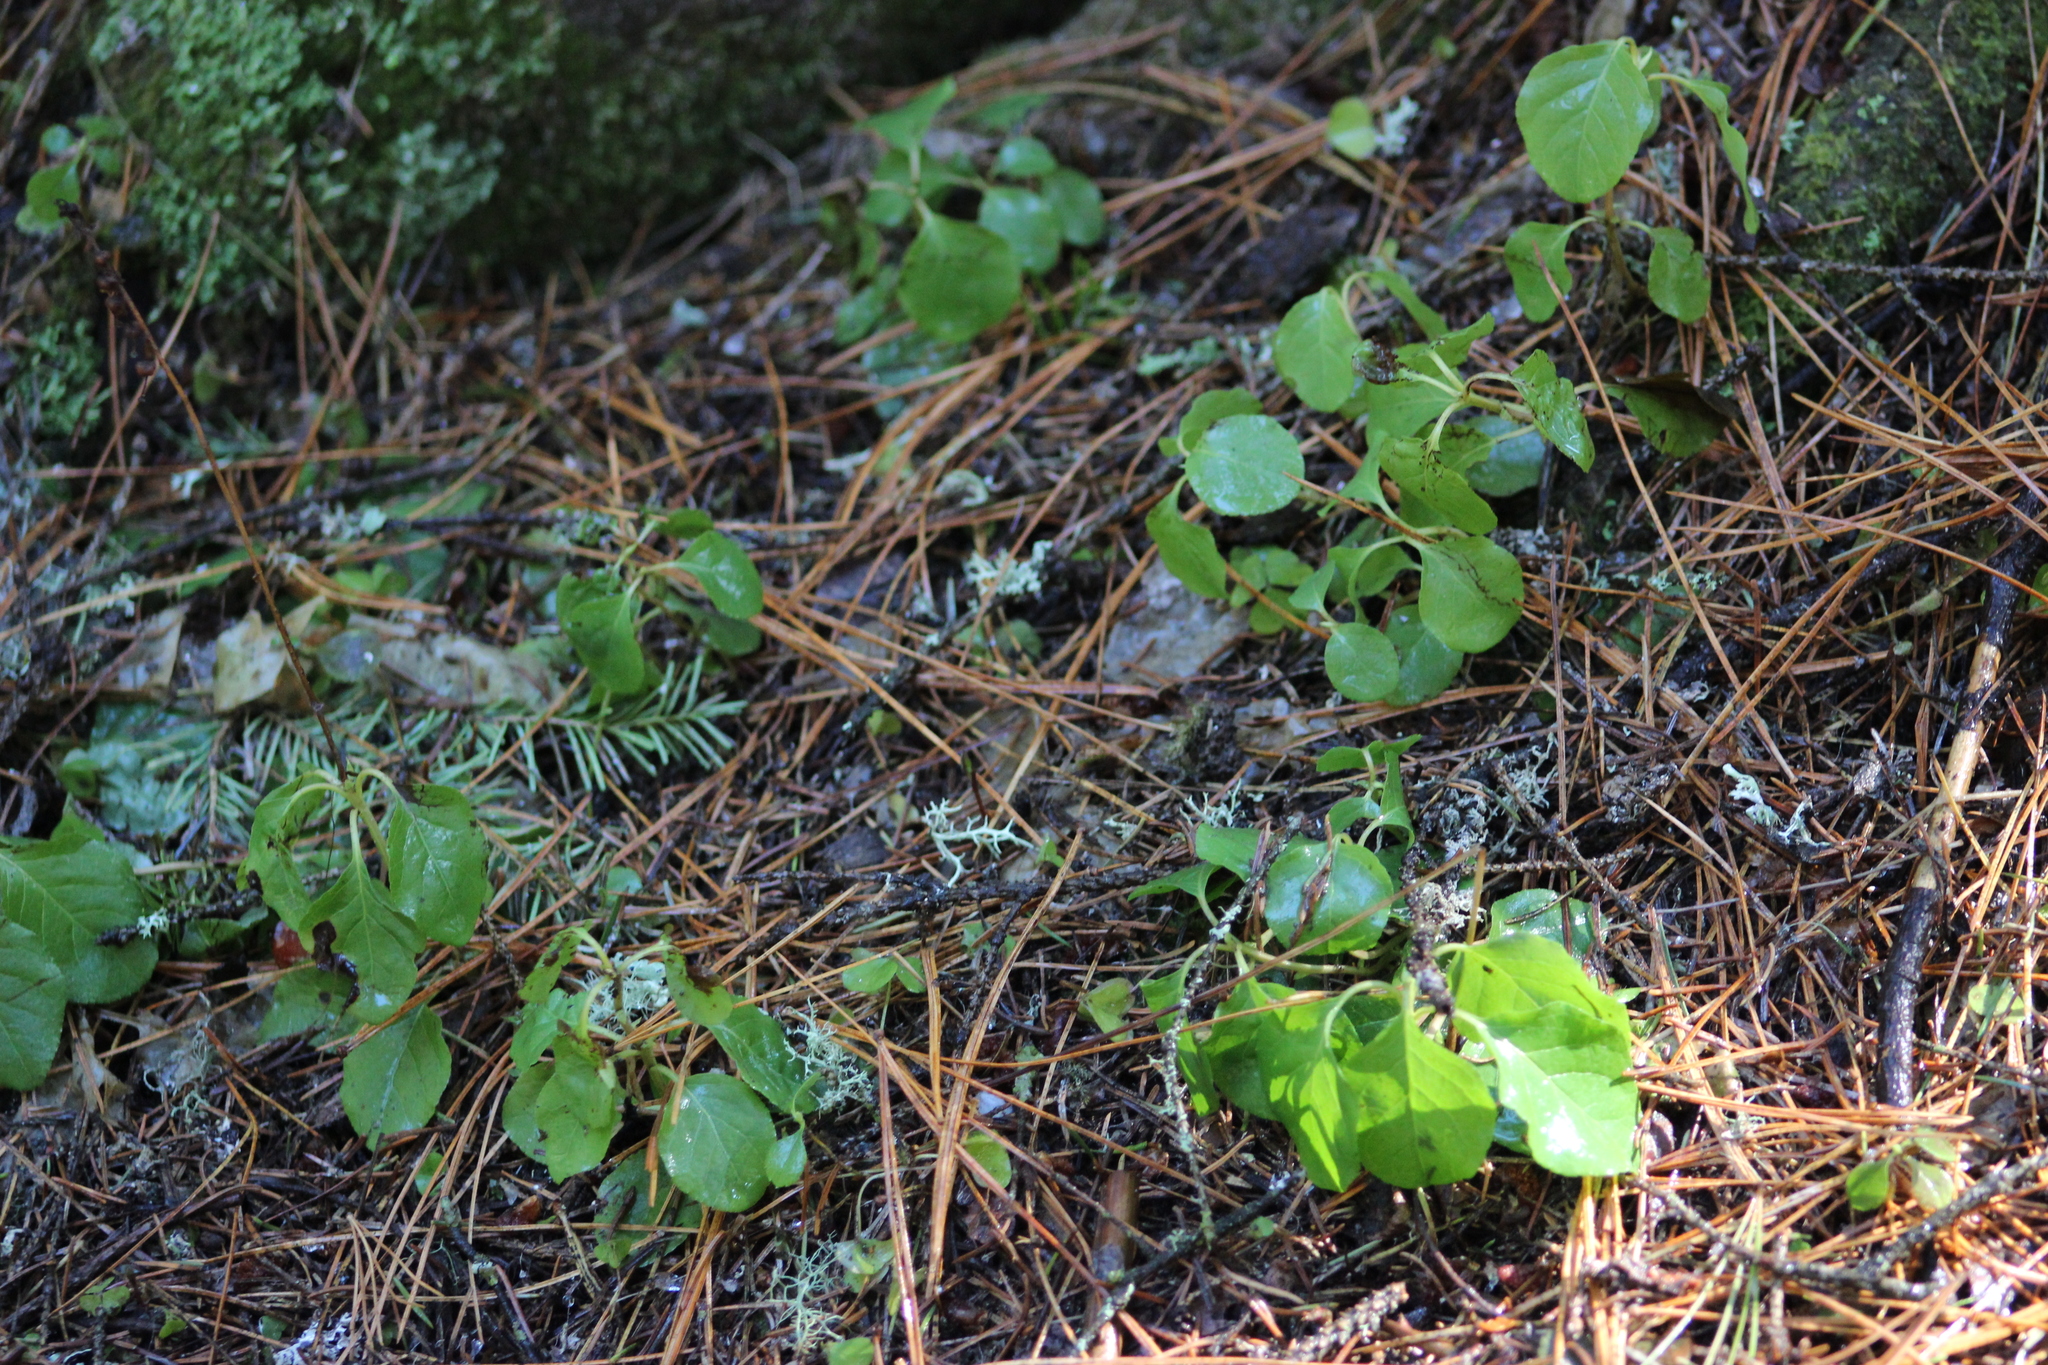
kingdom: Plantae
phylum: Tracheophyta
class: Magnoliopsida
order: Ericales
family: Ericaceae
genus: Orthilia
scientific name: Orthilia secunda
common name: One-sided orthilia
